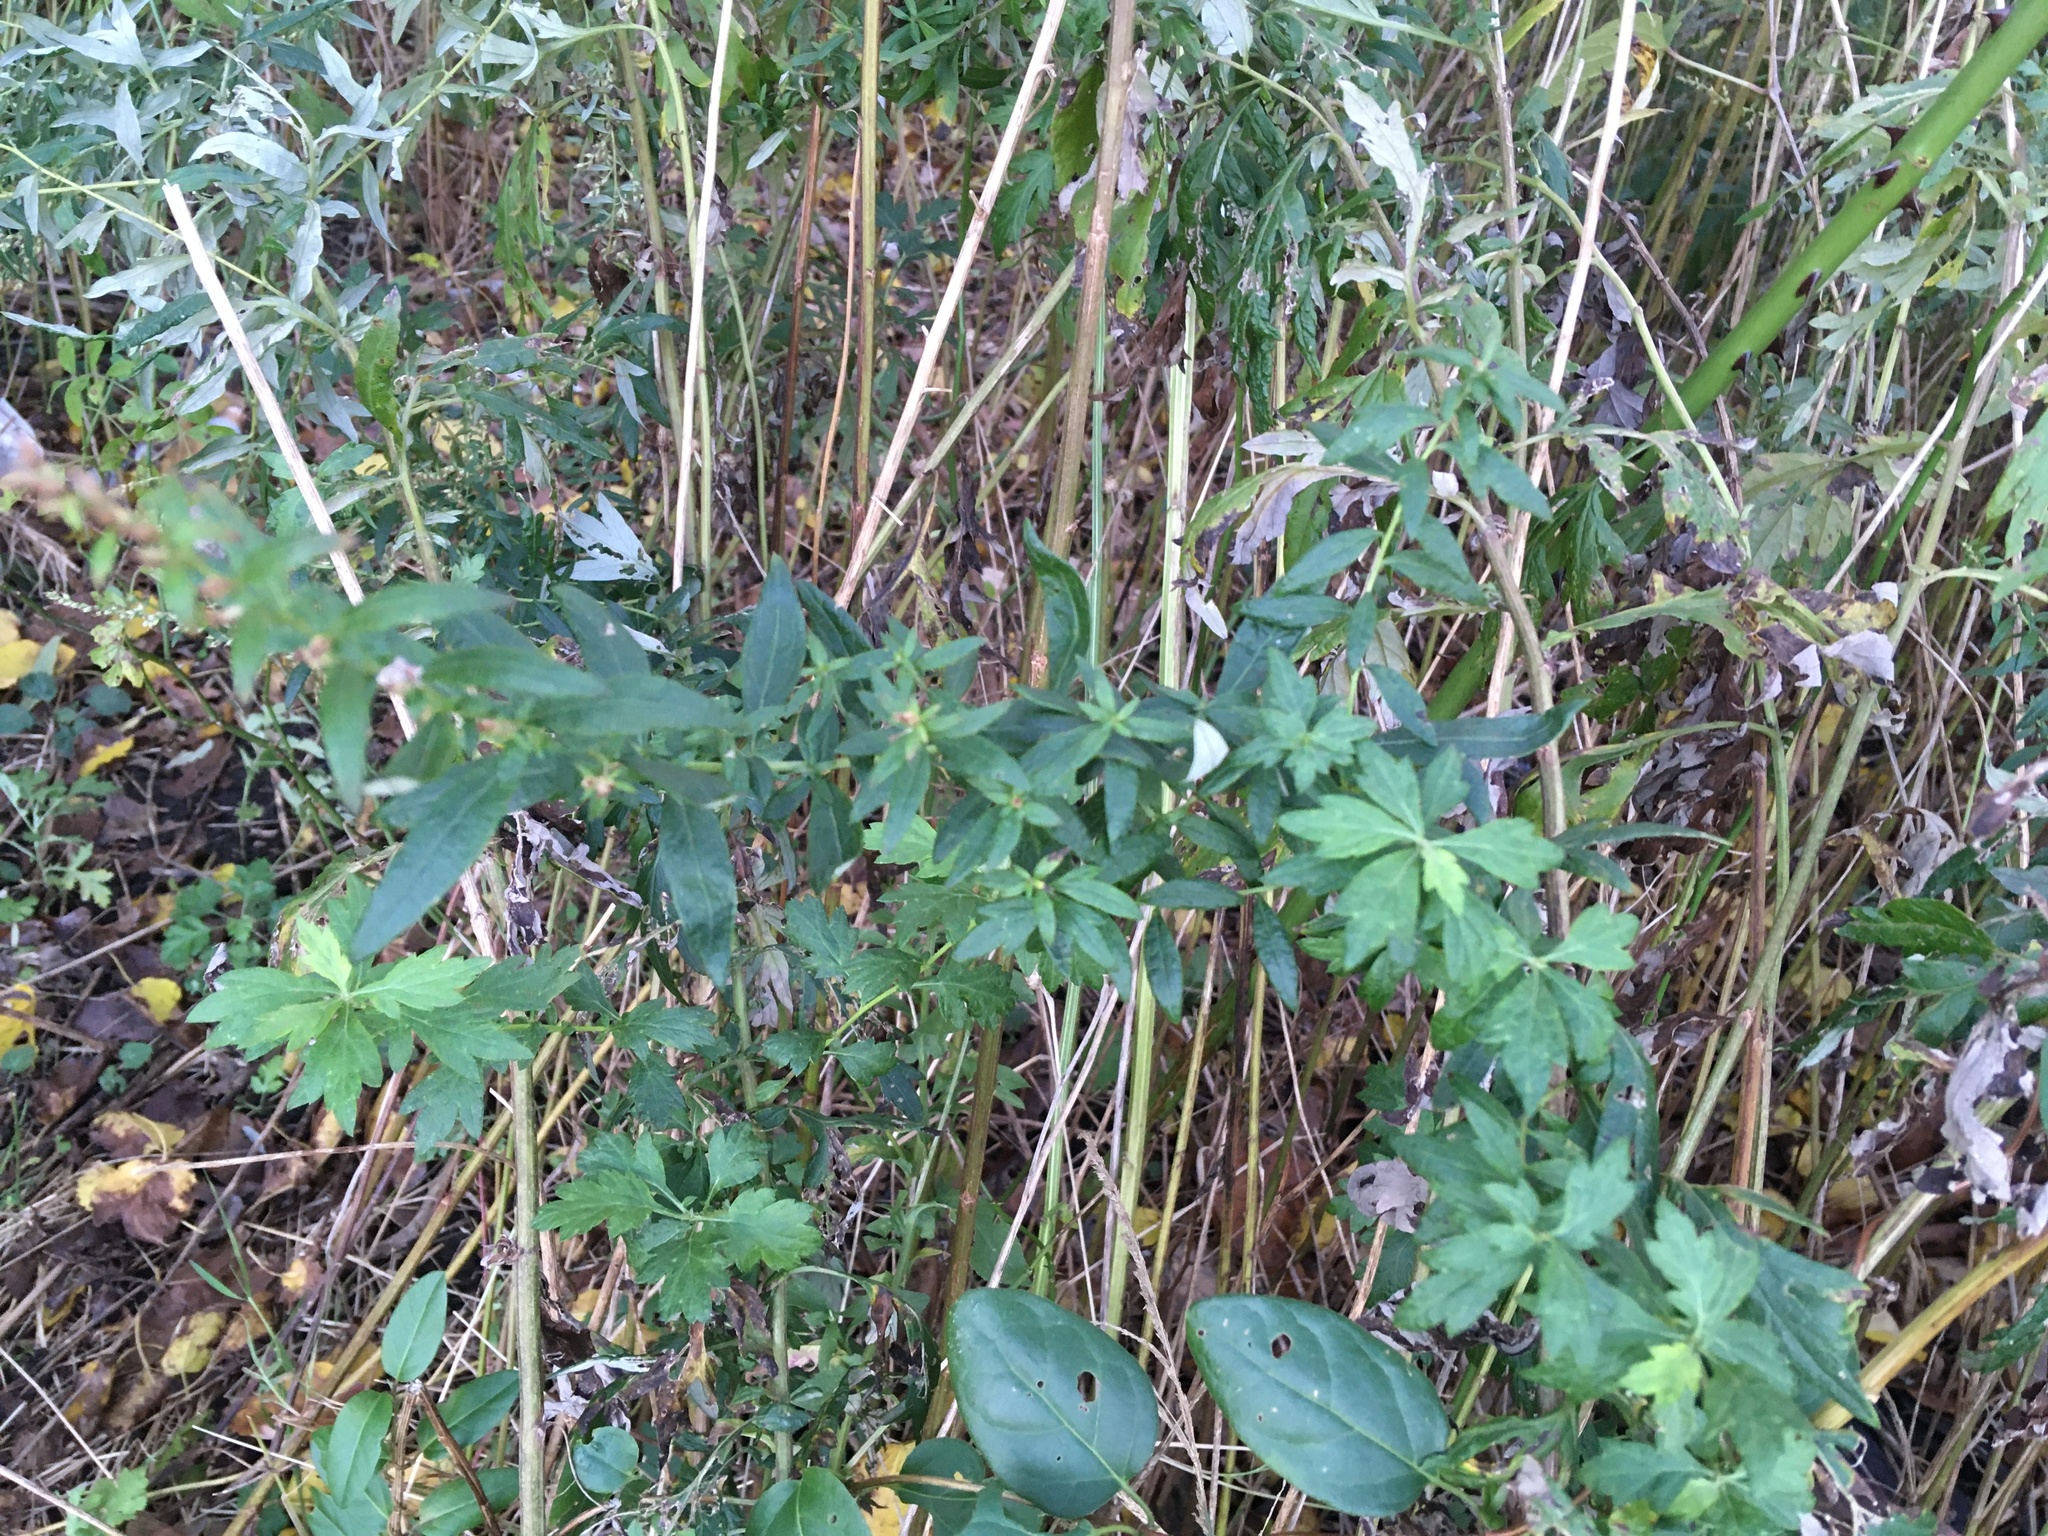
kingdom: Plantae
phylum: Tracheophyta
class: Magnoliopsida
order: Asterales
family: Asteraceae
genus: Artemisia
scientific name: Artemisia vulgaris
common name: Mugwort
